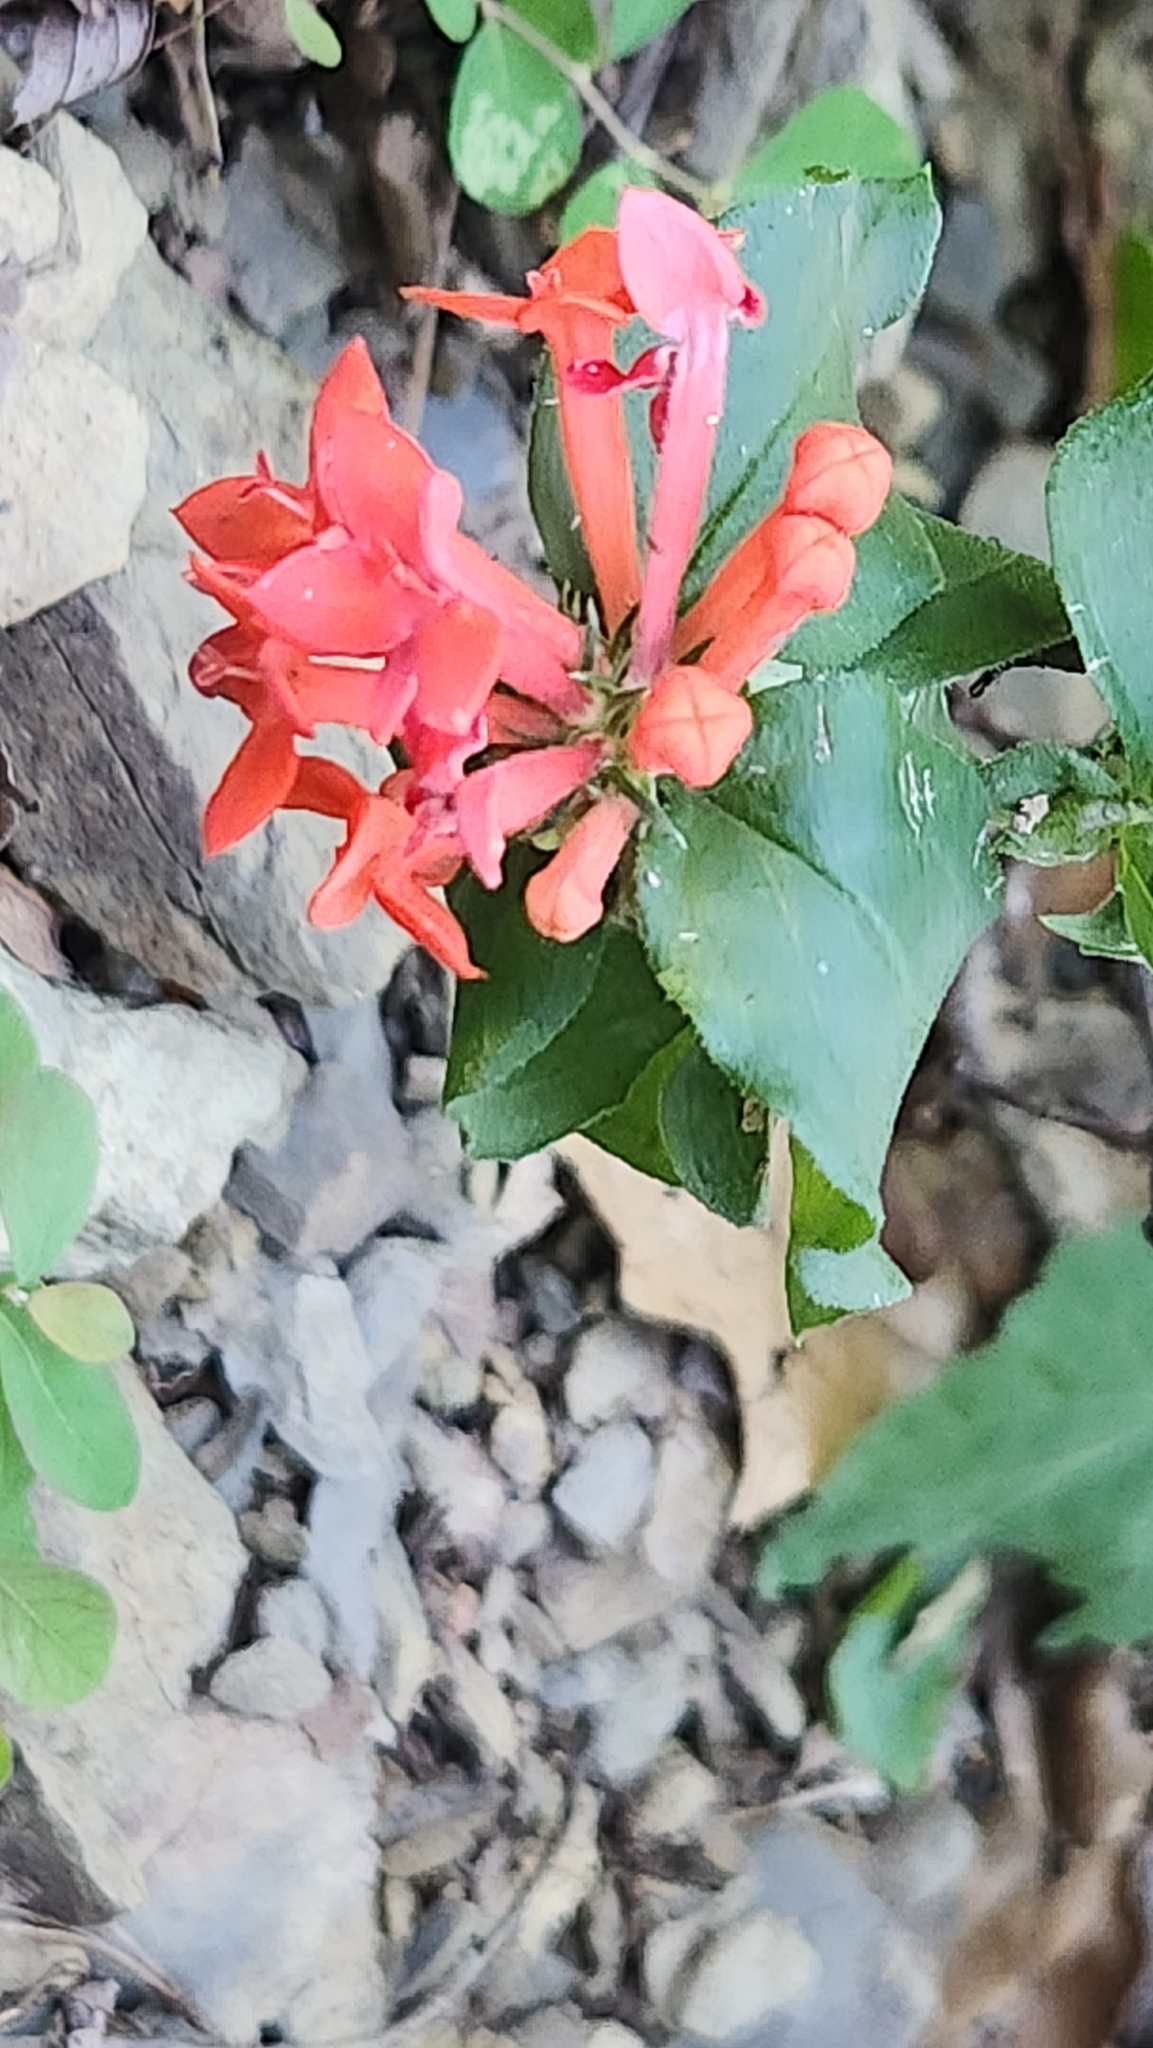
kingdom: Plantae
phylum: Tracheophyta
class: Magnoliopsida
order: Gentianales
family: Rubiaceae
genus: Bouvardia
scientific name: Bouvardia ternifolia
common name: Scarlet bouvardia
